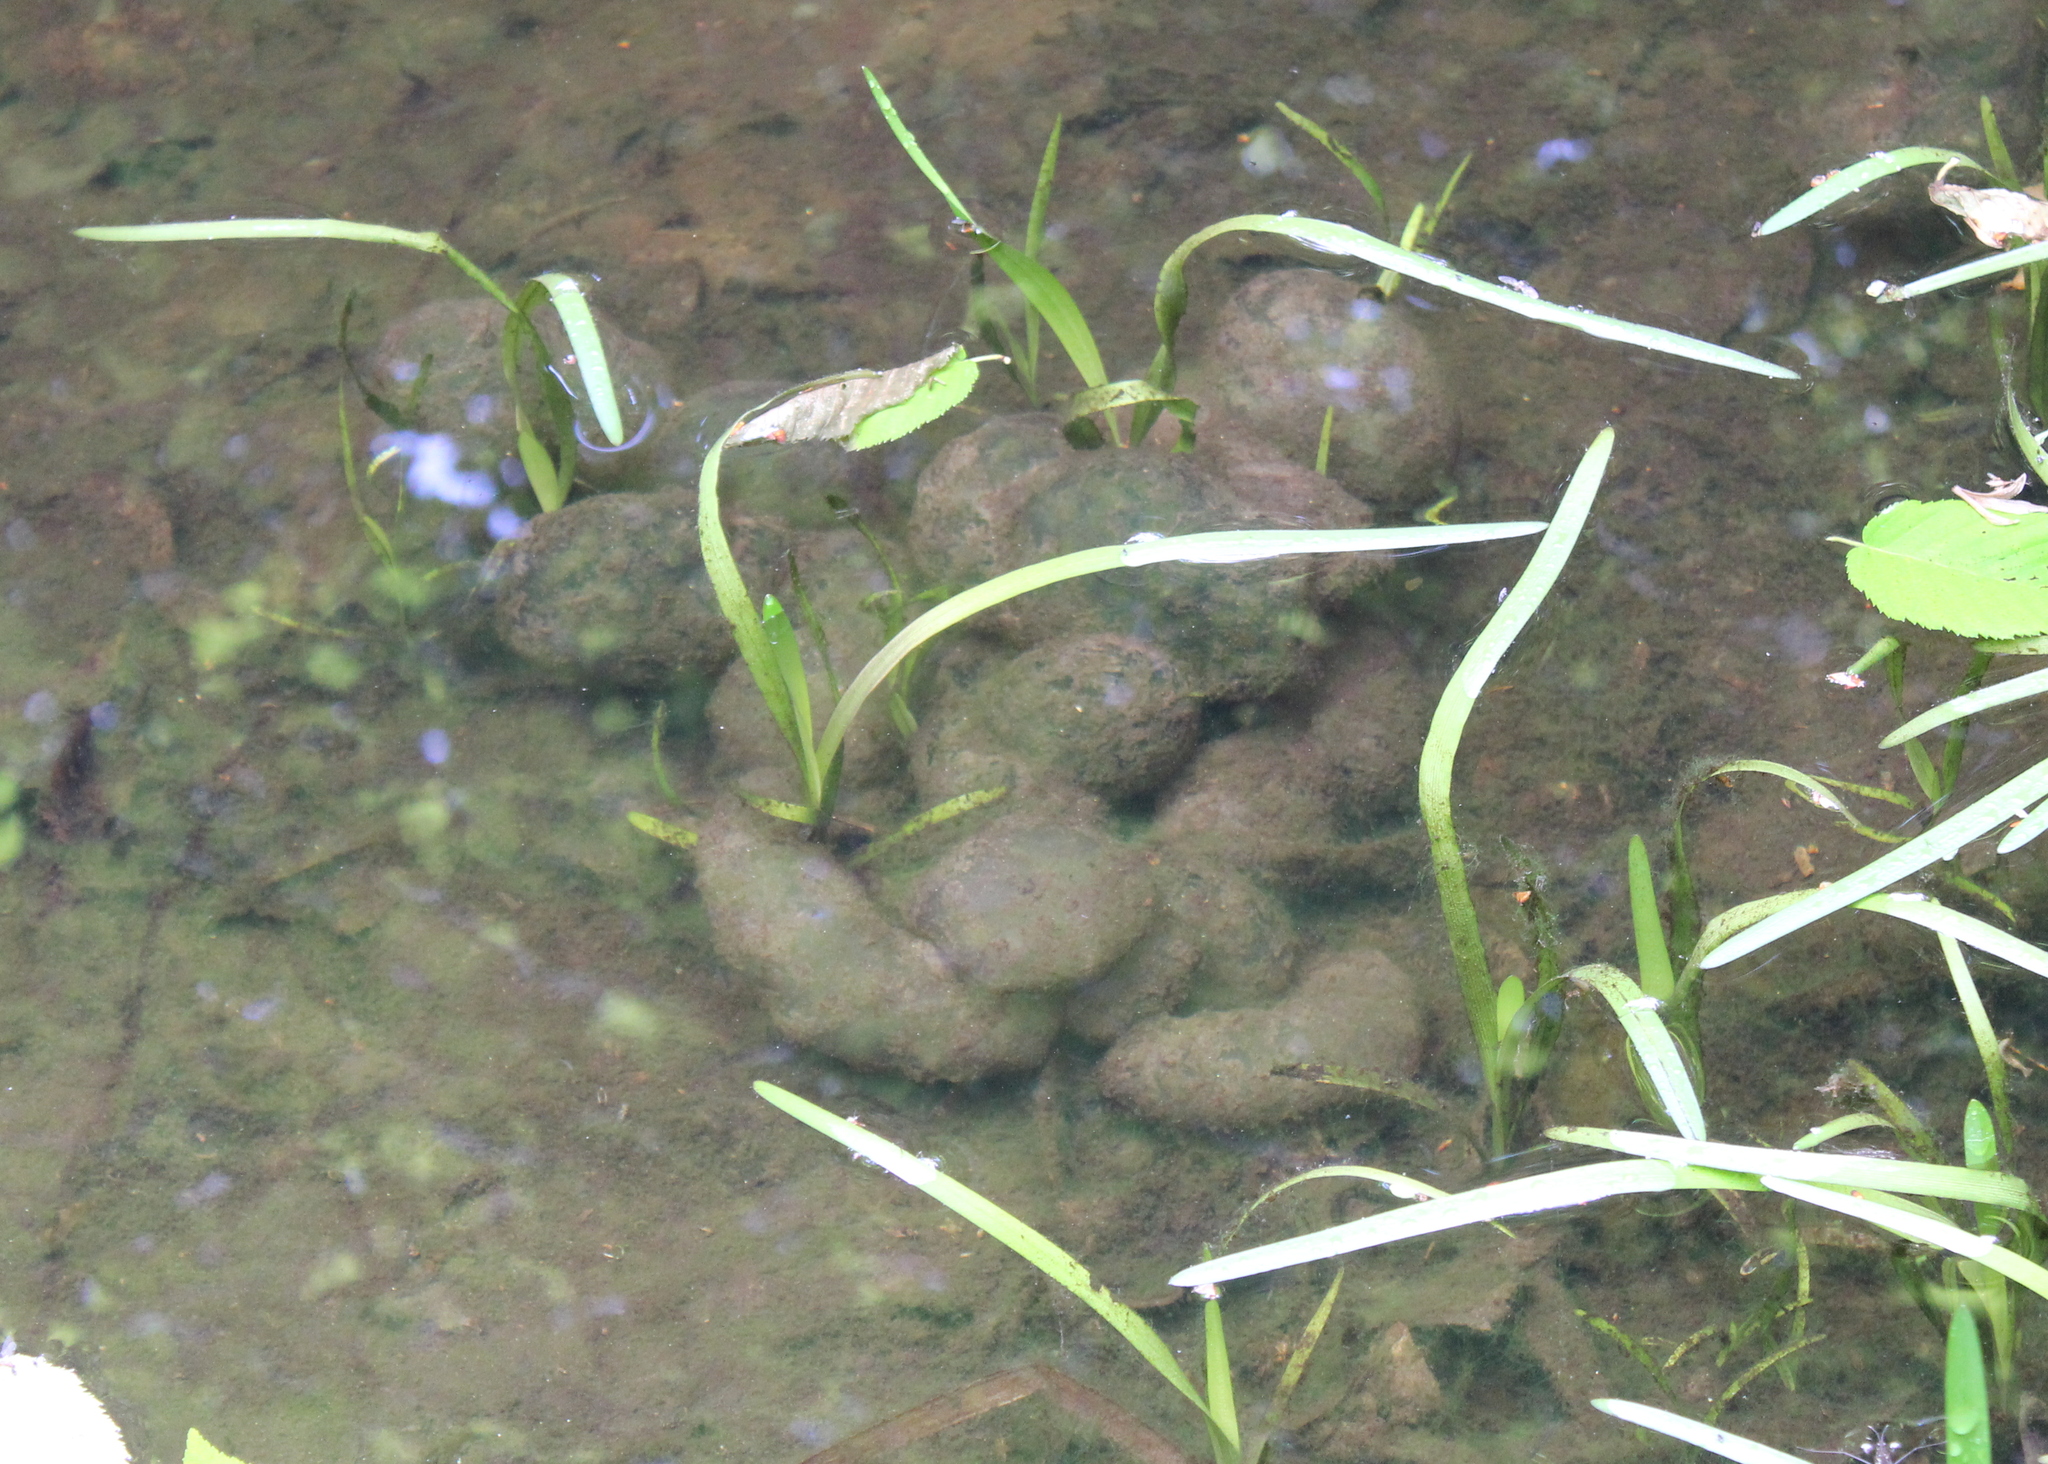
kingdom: Animalia
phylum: Chordata
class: Amphibia
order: Caudata
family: Ambystomatidae
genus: Ambystoma
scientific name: Ambystoma maculatum
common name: Spotted salamander
